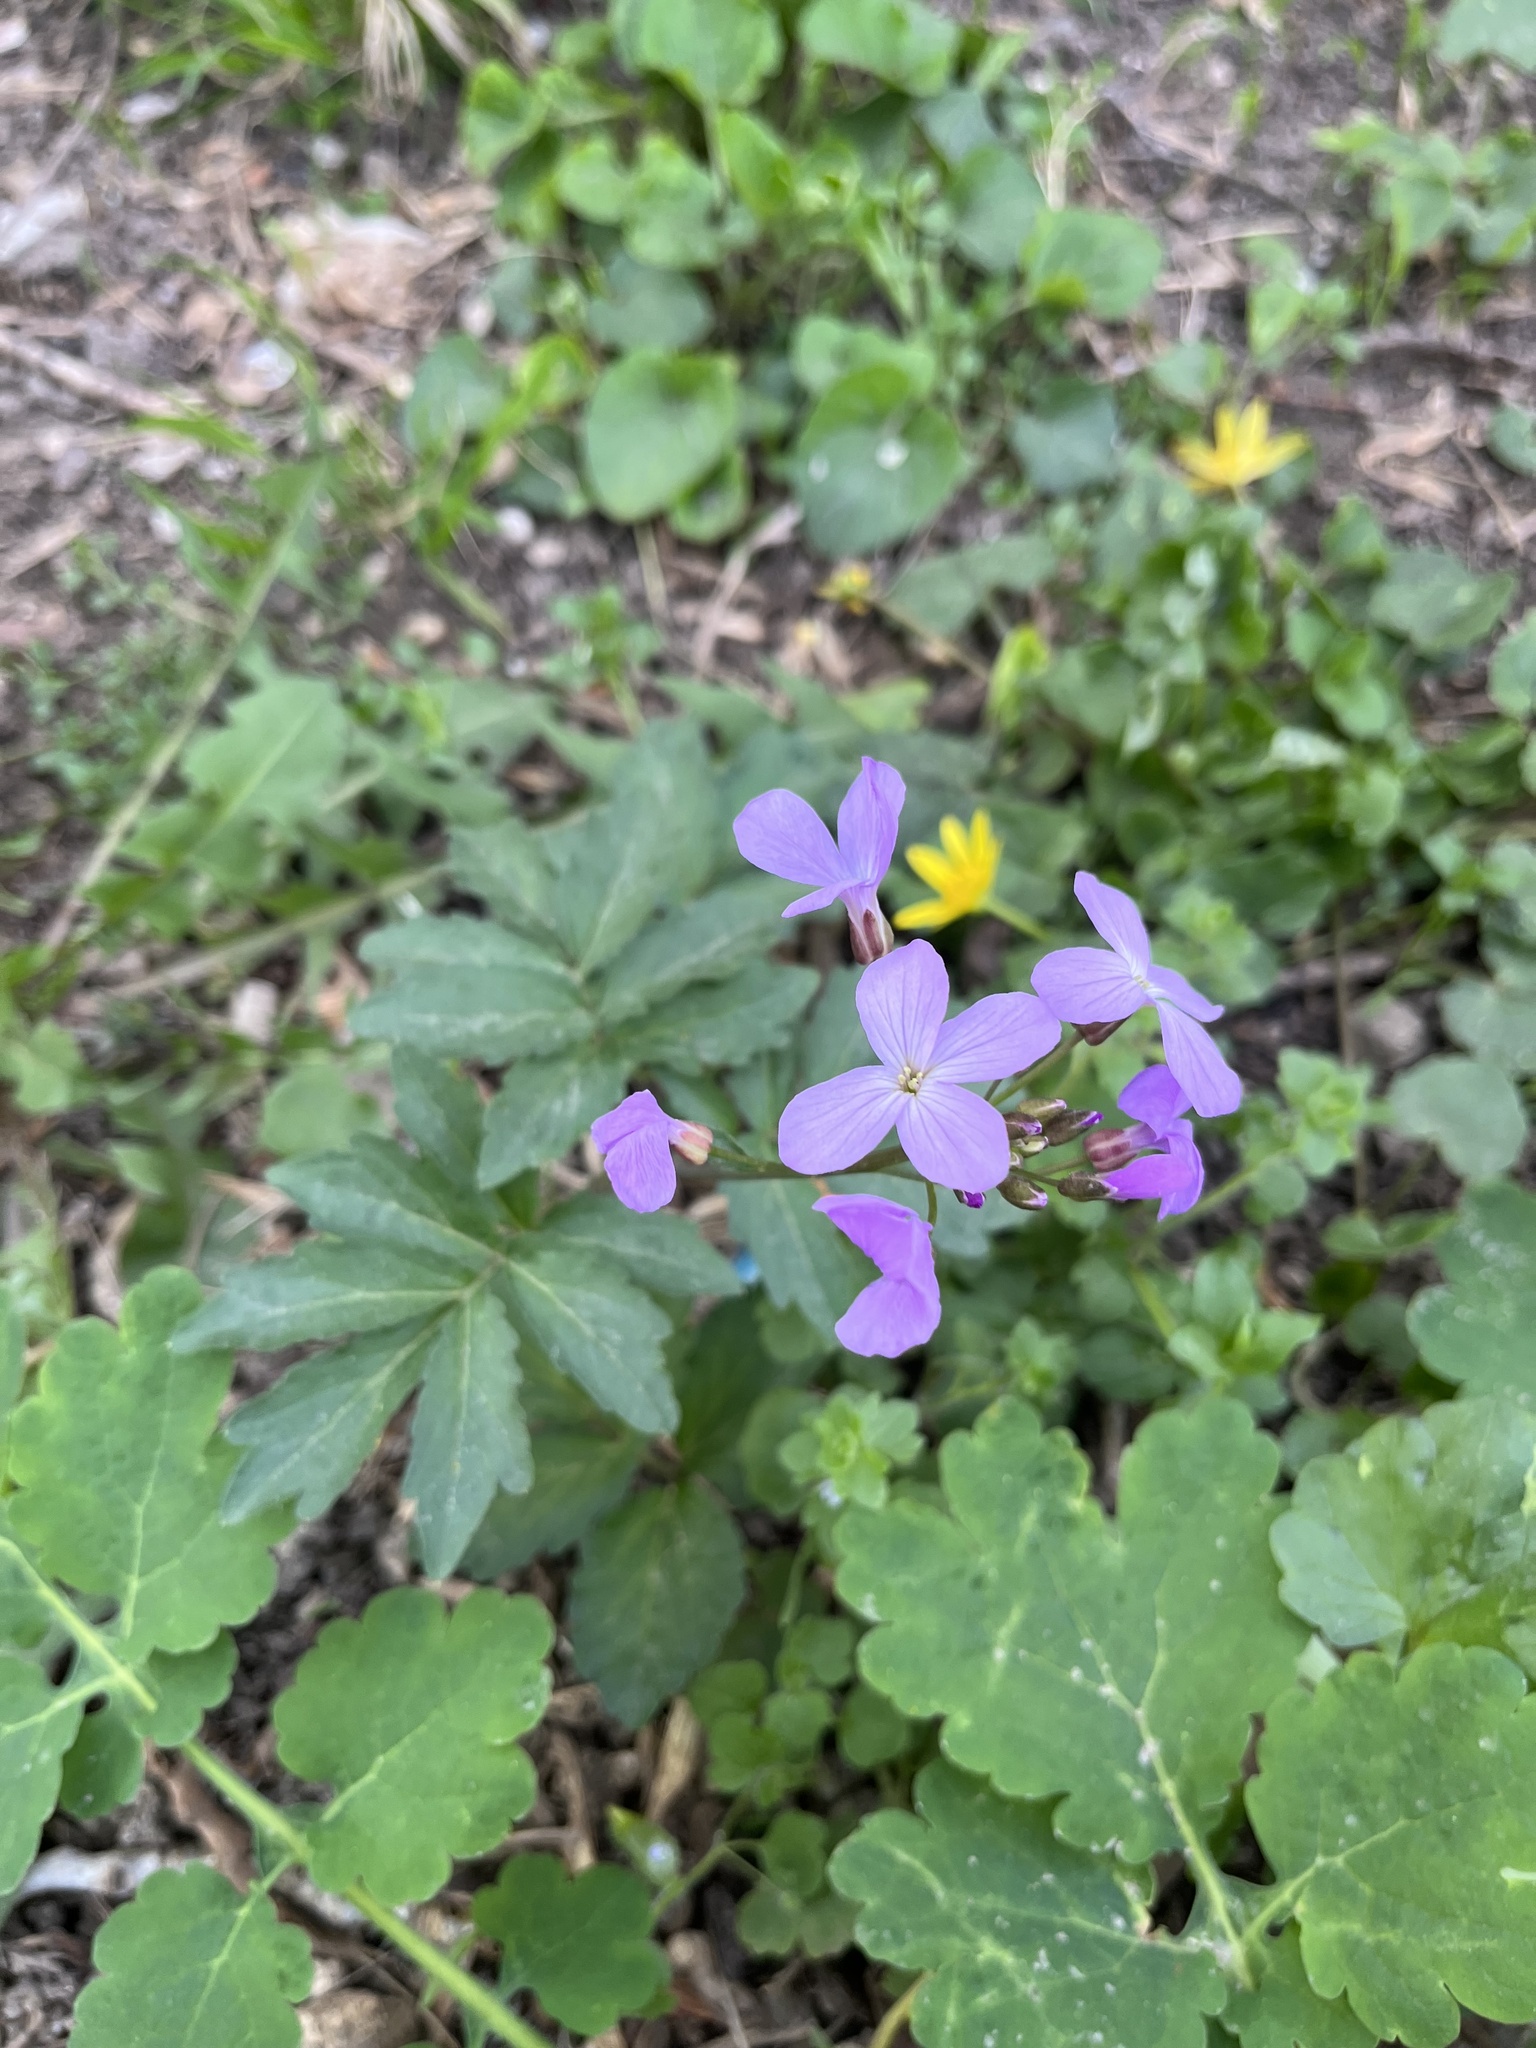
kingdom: Plantae
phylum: Tracheophyta
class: Magnoliopsida
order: Brassicales
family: Brassicaceae
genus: Cardamine
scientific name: Cardamine quinquefolia
